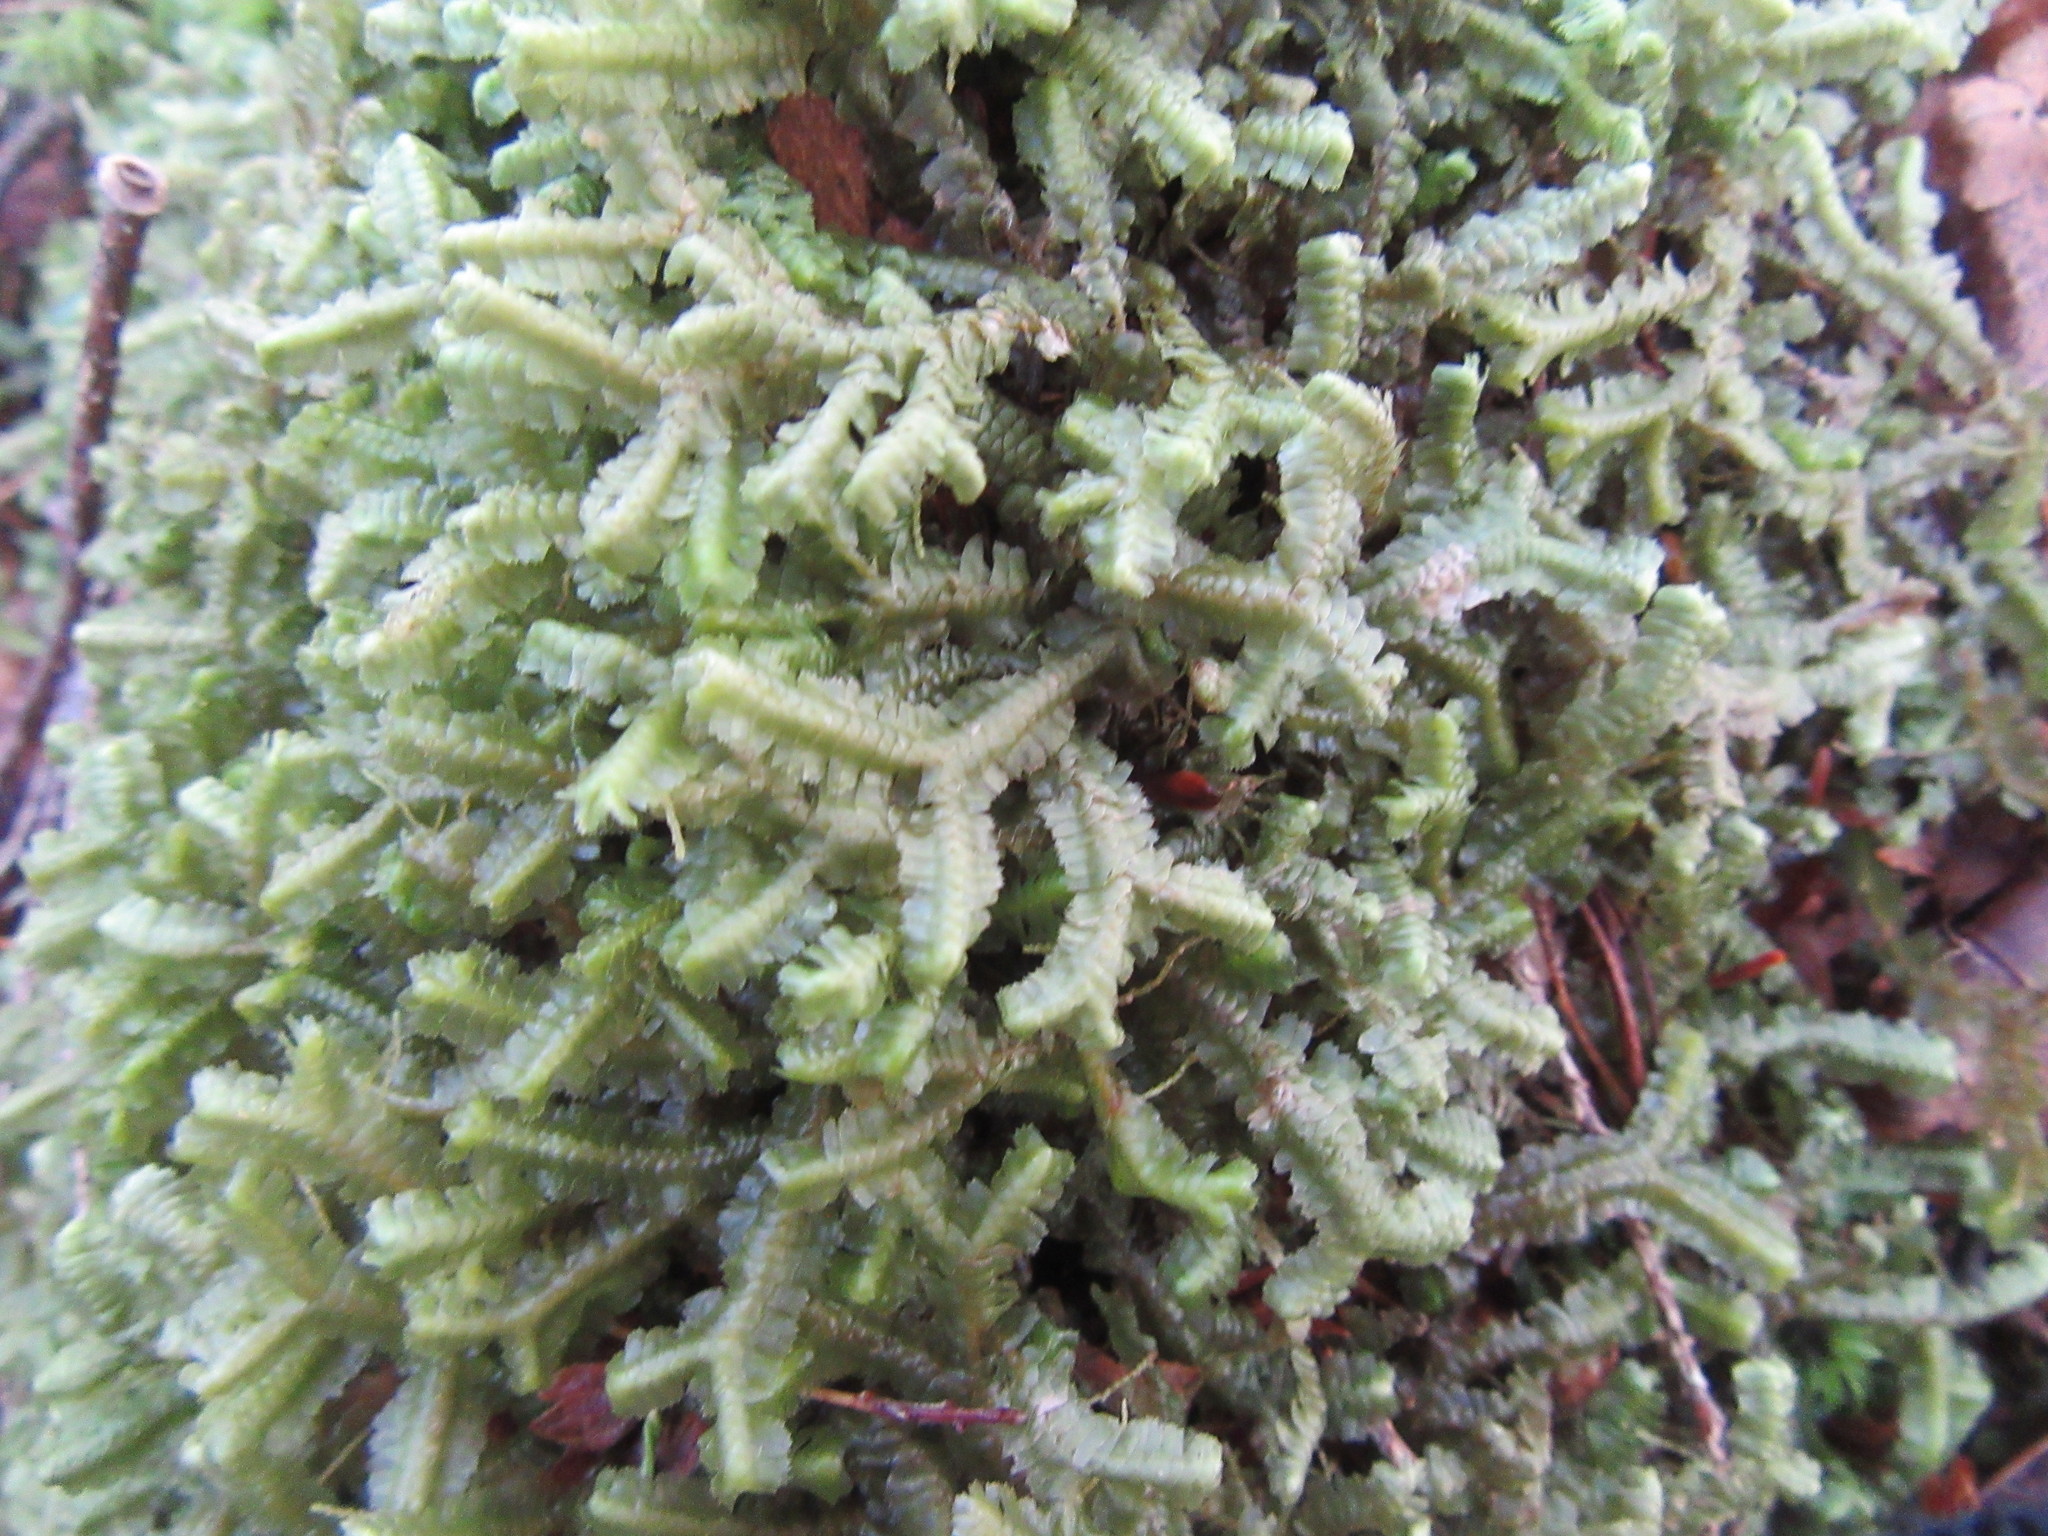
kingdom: Plantae
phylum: Marchantiophyta
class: Jungermanniopsida
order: Jungermanniales
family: Lepidoziaceae
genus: Bazzania
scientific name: Bazzania trilobata
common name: Three-lobed whipwort
